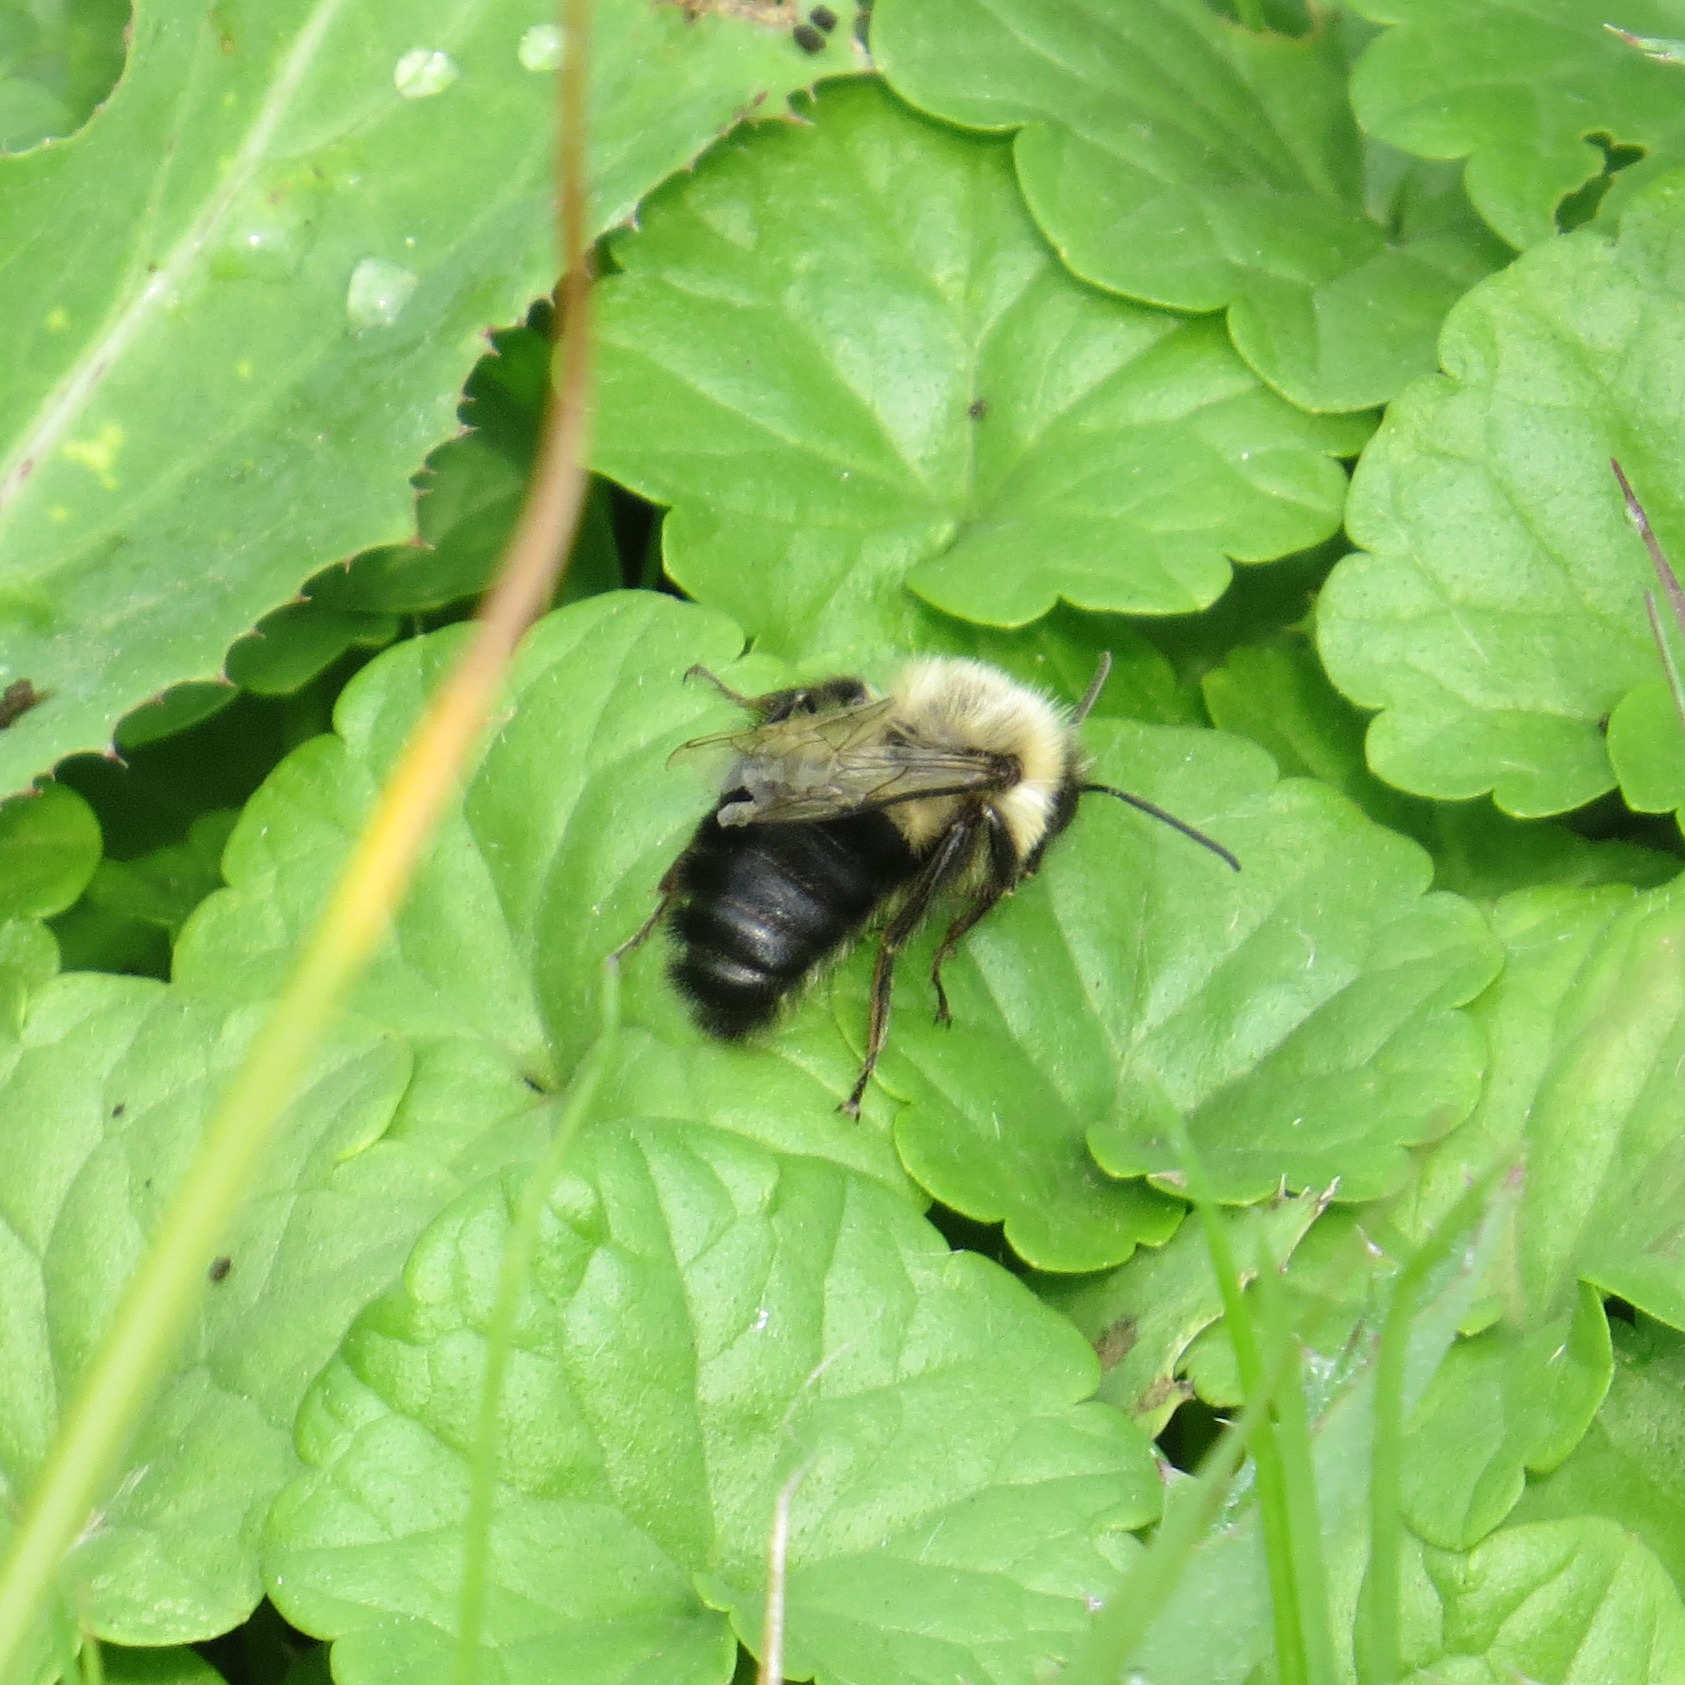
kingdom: Animalia
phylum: Arthropoda
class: Insecta
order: Hymenoptera
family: Apidae
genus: Bombus
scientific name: Bombus impatiens
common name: Common eastern bumble bee
